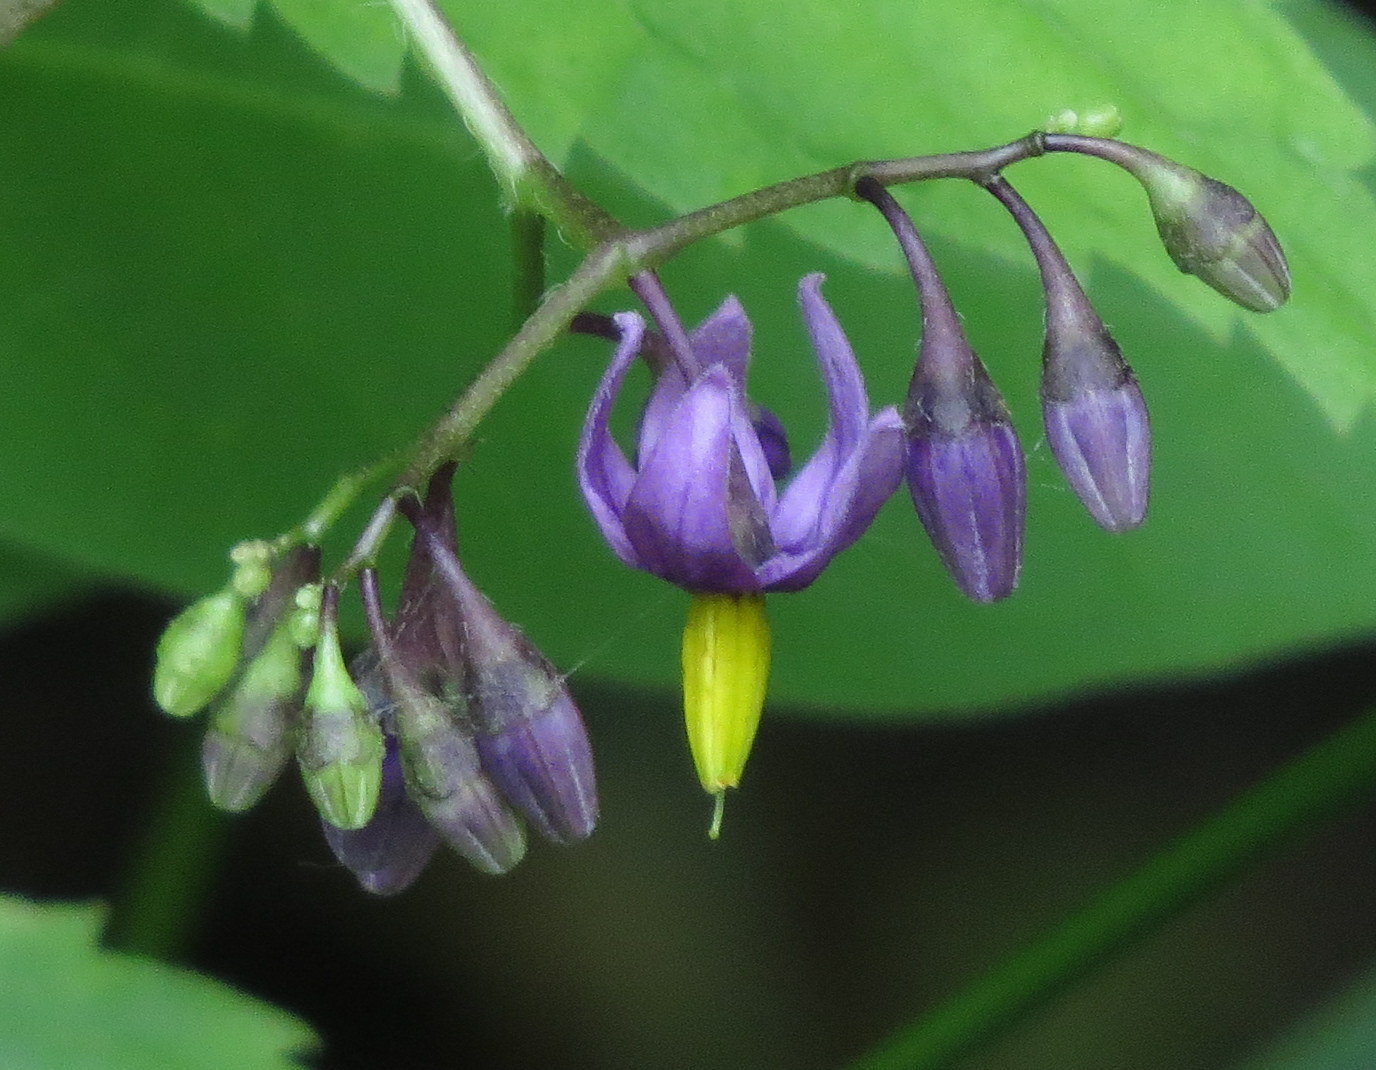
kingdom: Plantae
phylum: Tracheophyta
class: Magnoliopsida
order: Solanales
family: Solanaceae
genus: Solanum
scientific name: Solanum dulcamara
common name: Climbing nightshade
